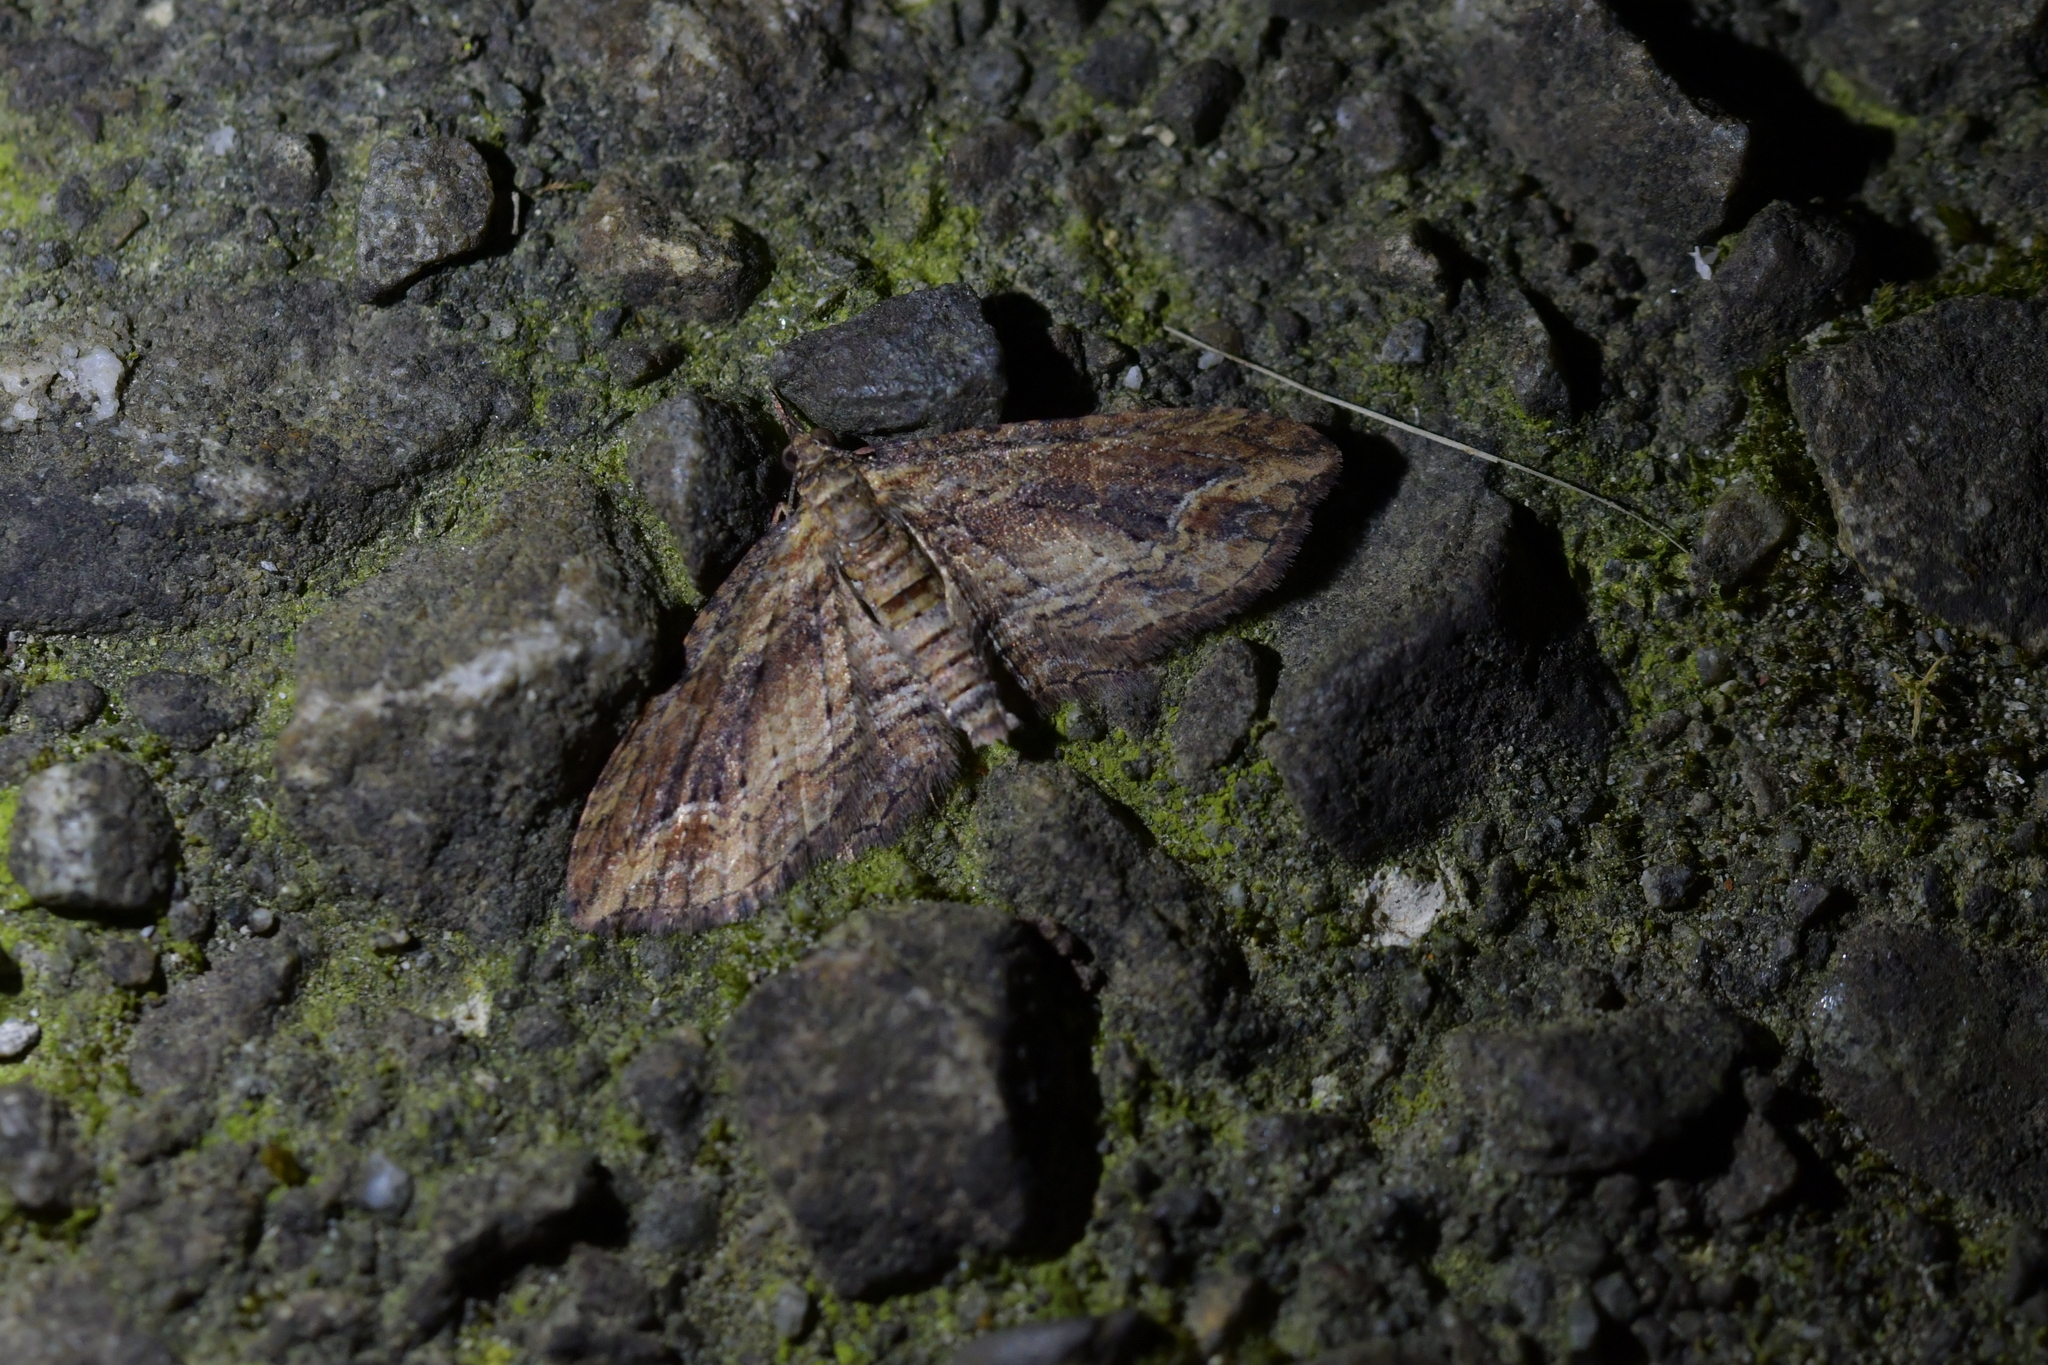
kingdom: Animalia
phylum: Arthropoda
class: Insecta
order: Lepidoptera
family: Geometridae
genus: Chloroclystis
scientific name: Chloroclystis filata
